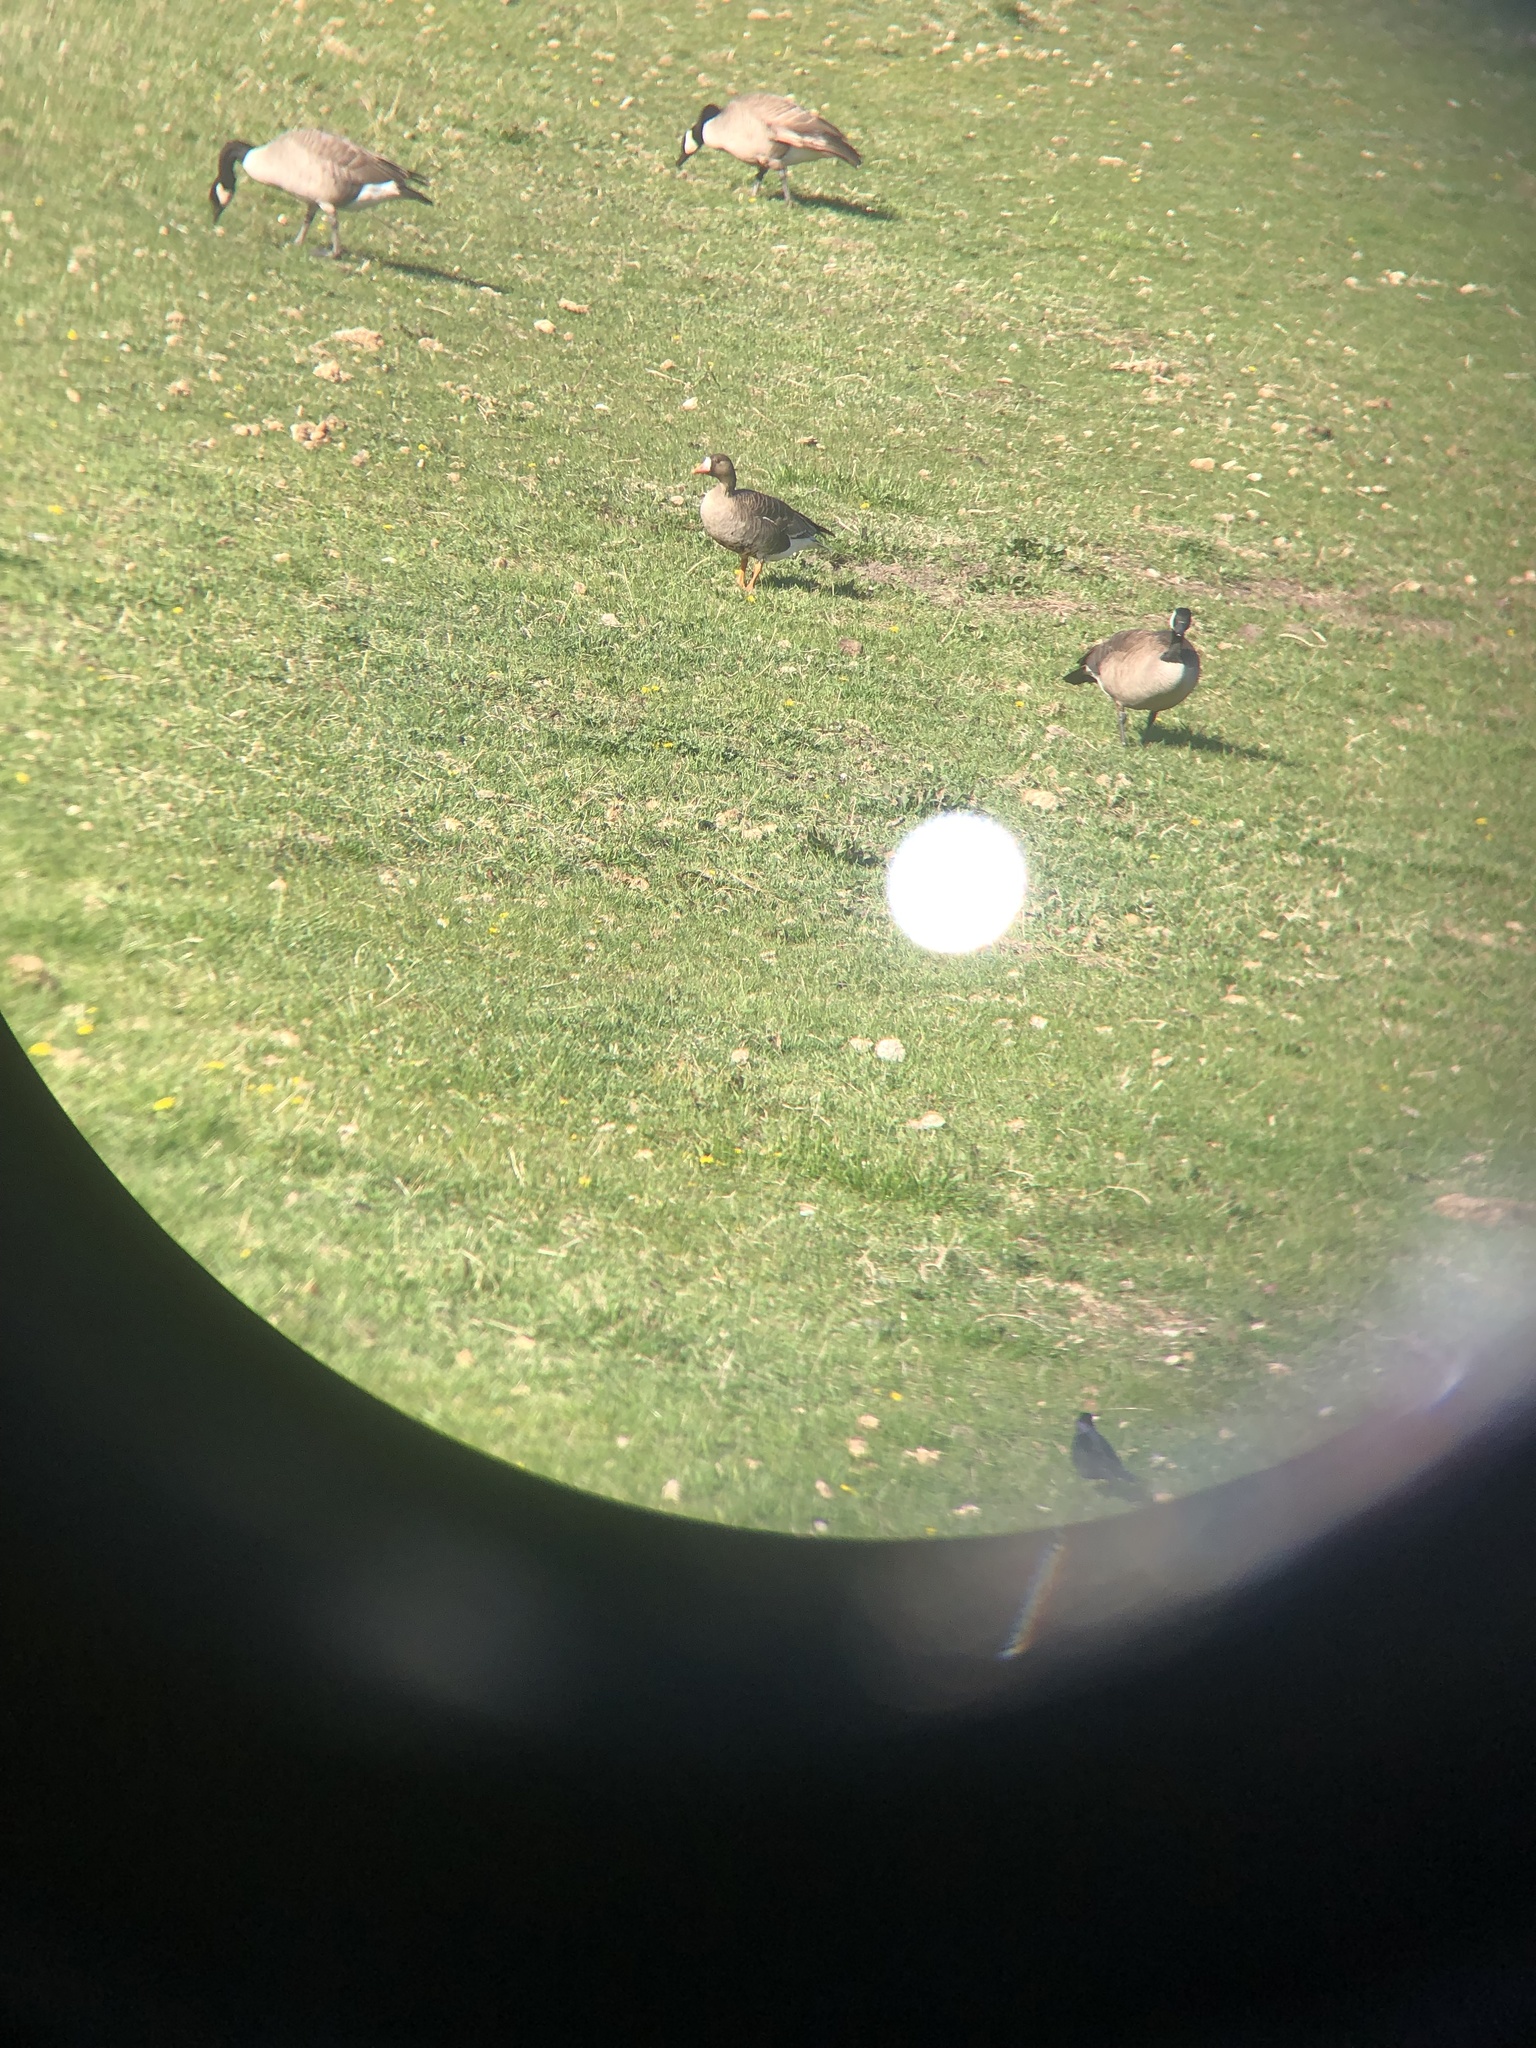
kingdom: Animalia
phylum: Chordata
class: Aves
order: Anseriformes
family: Anatidae
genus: Branta
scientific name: Branta canadensis
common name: Canada goose
